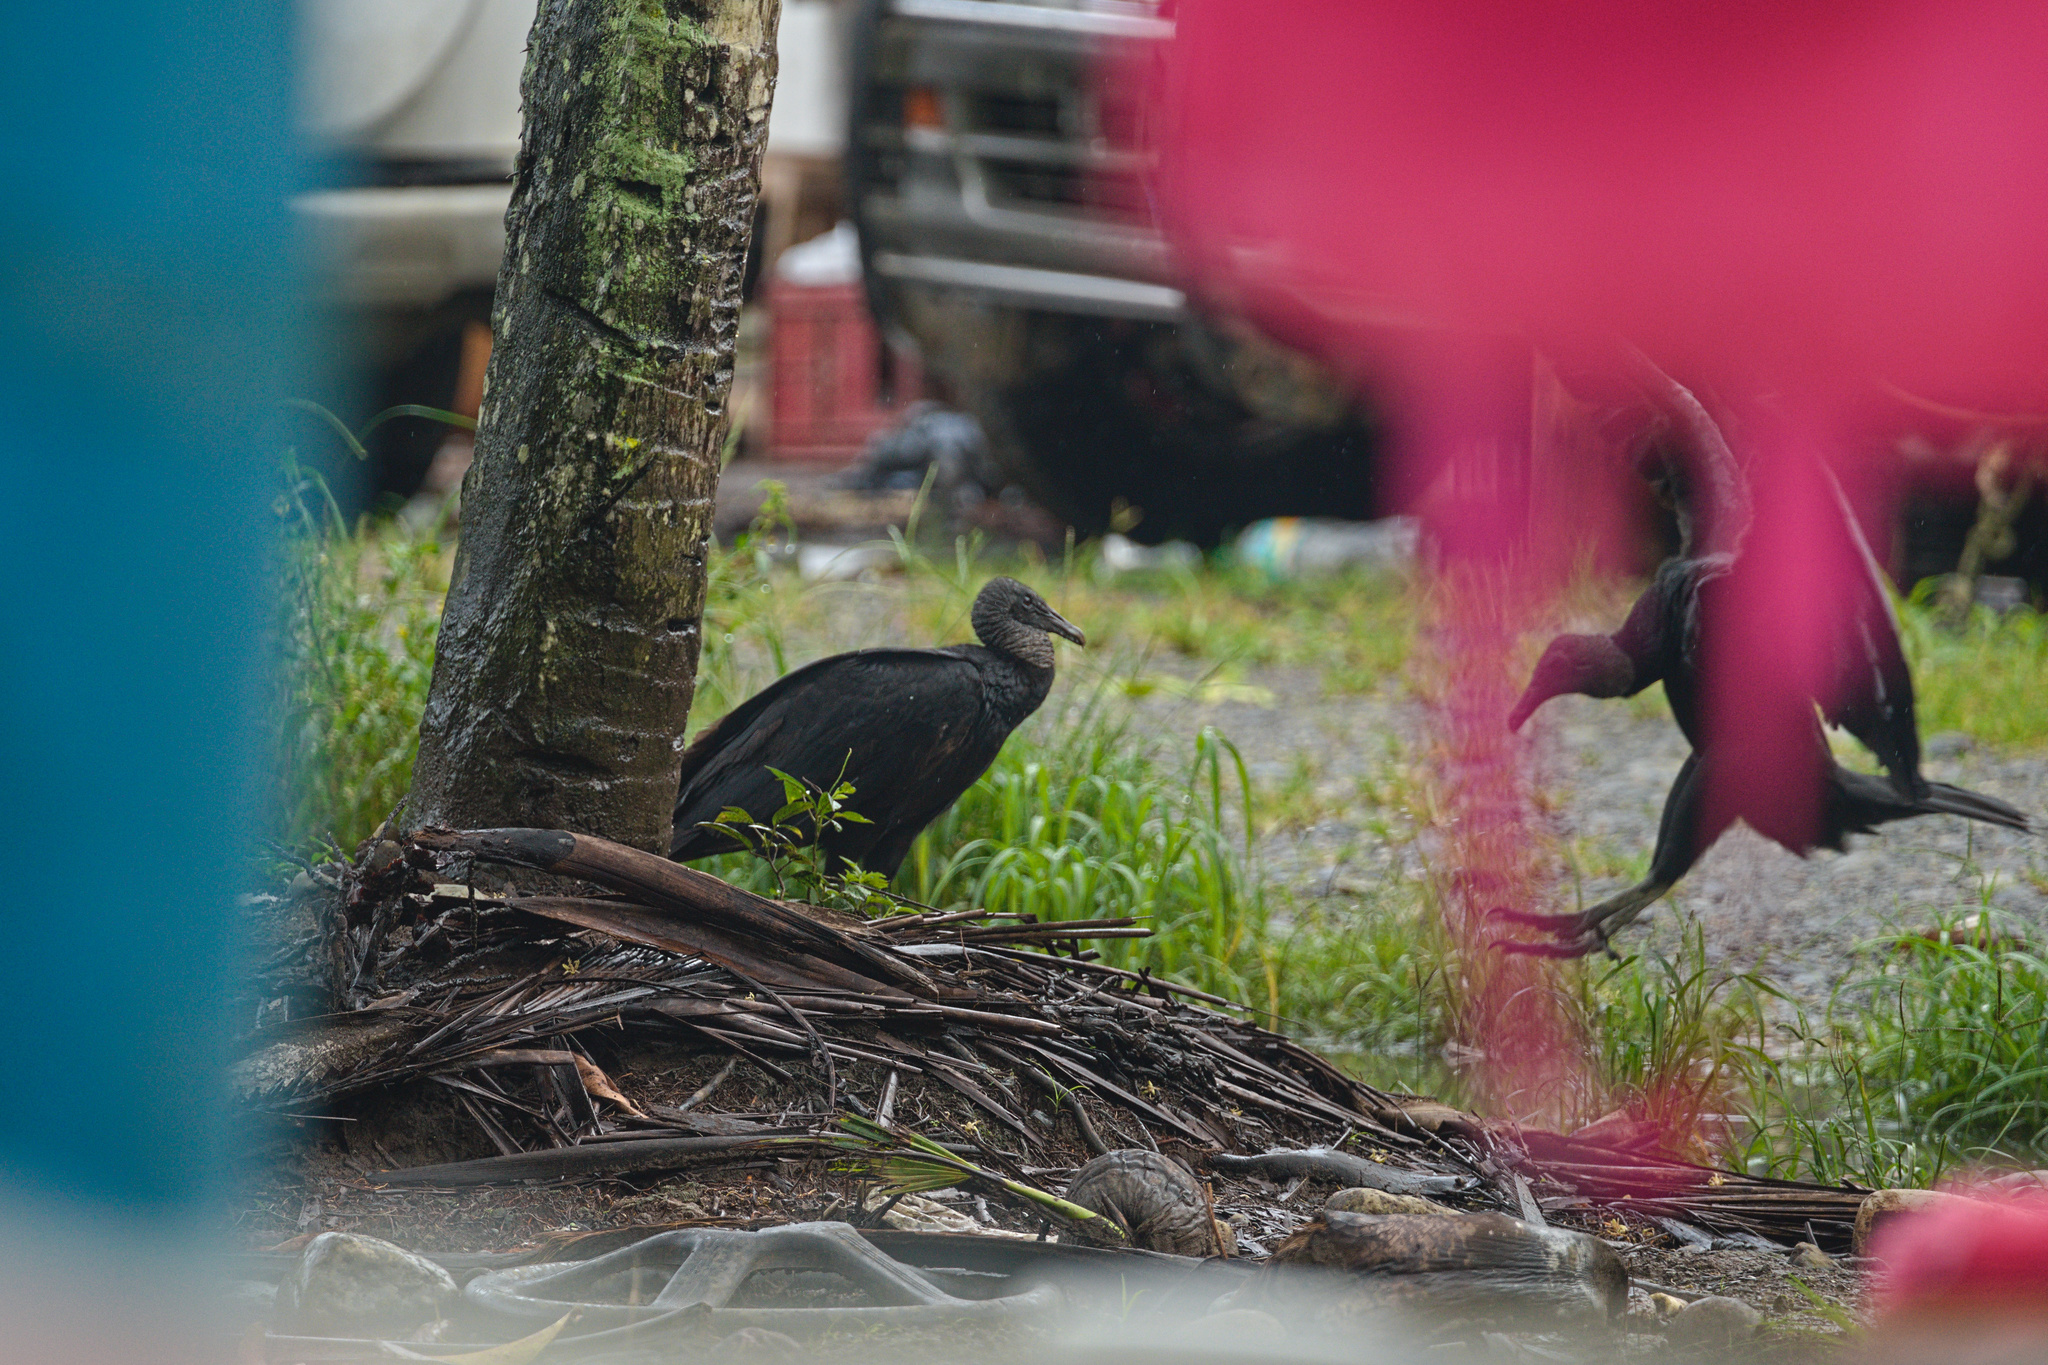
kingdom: Animalia
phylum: Chordata
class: Aves
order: Accipitriformes
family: Cathartidae
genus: Coragyps
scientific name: Coragyps atratus
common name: Black vulture
